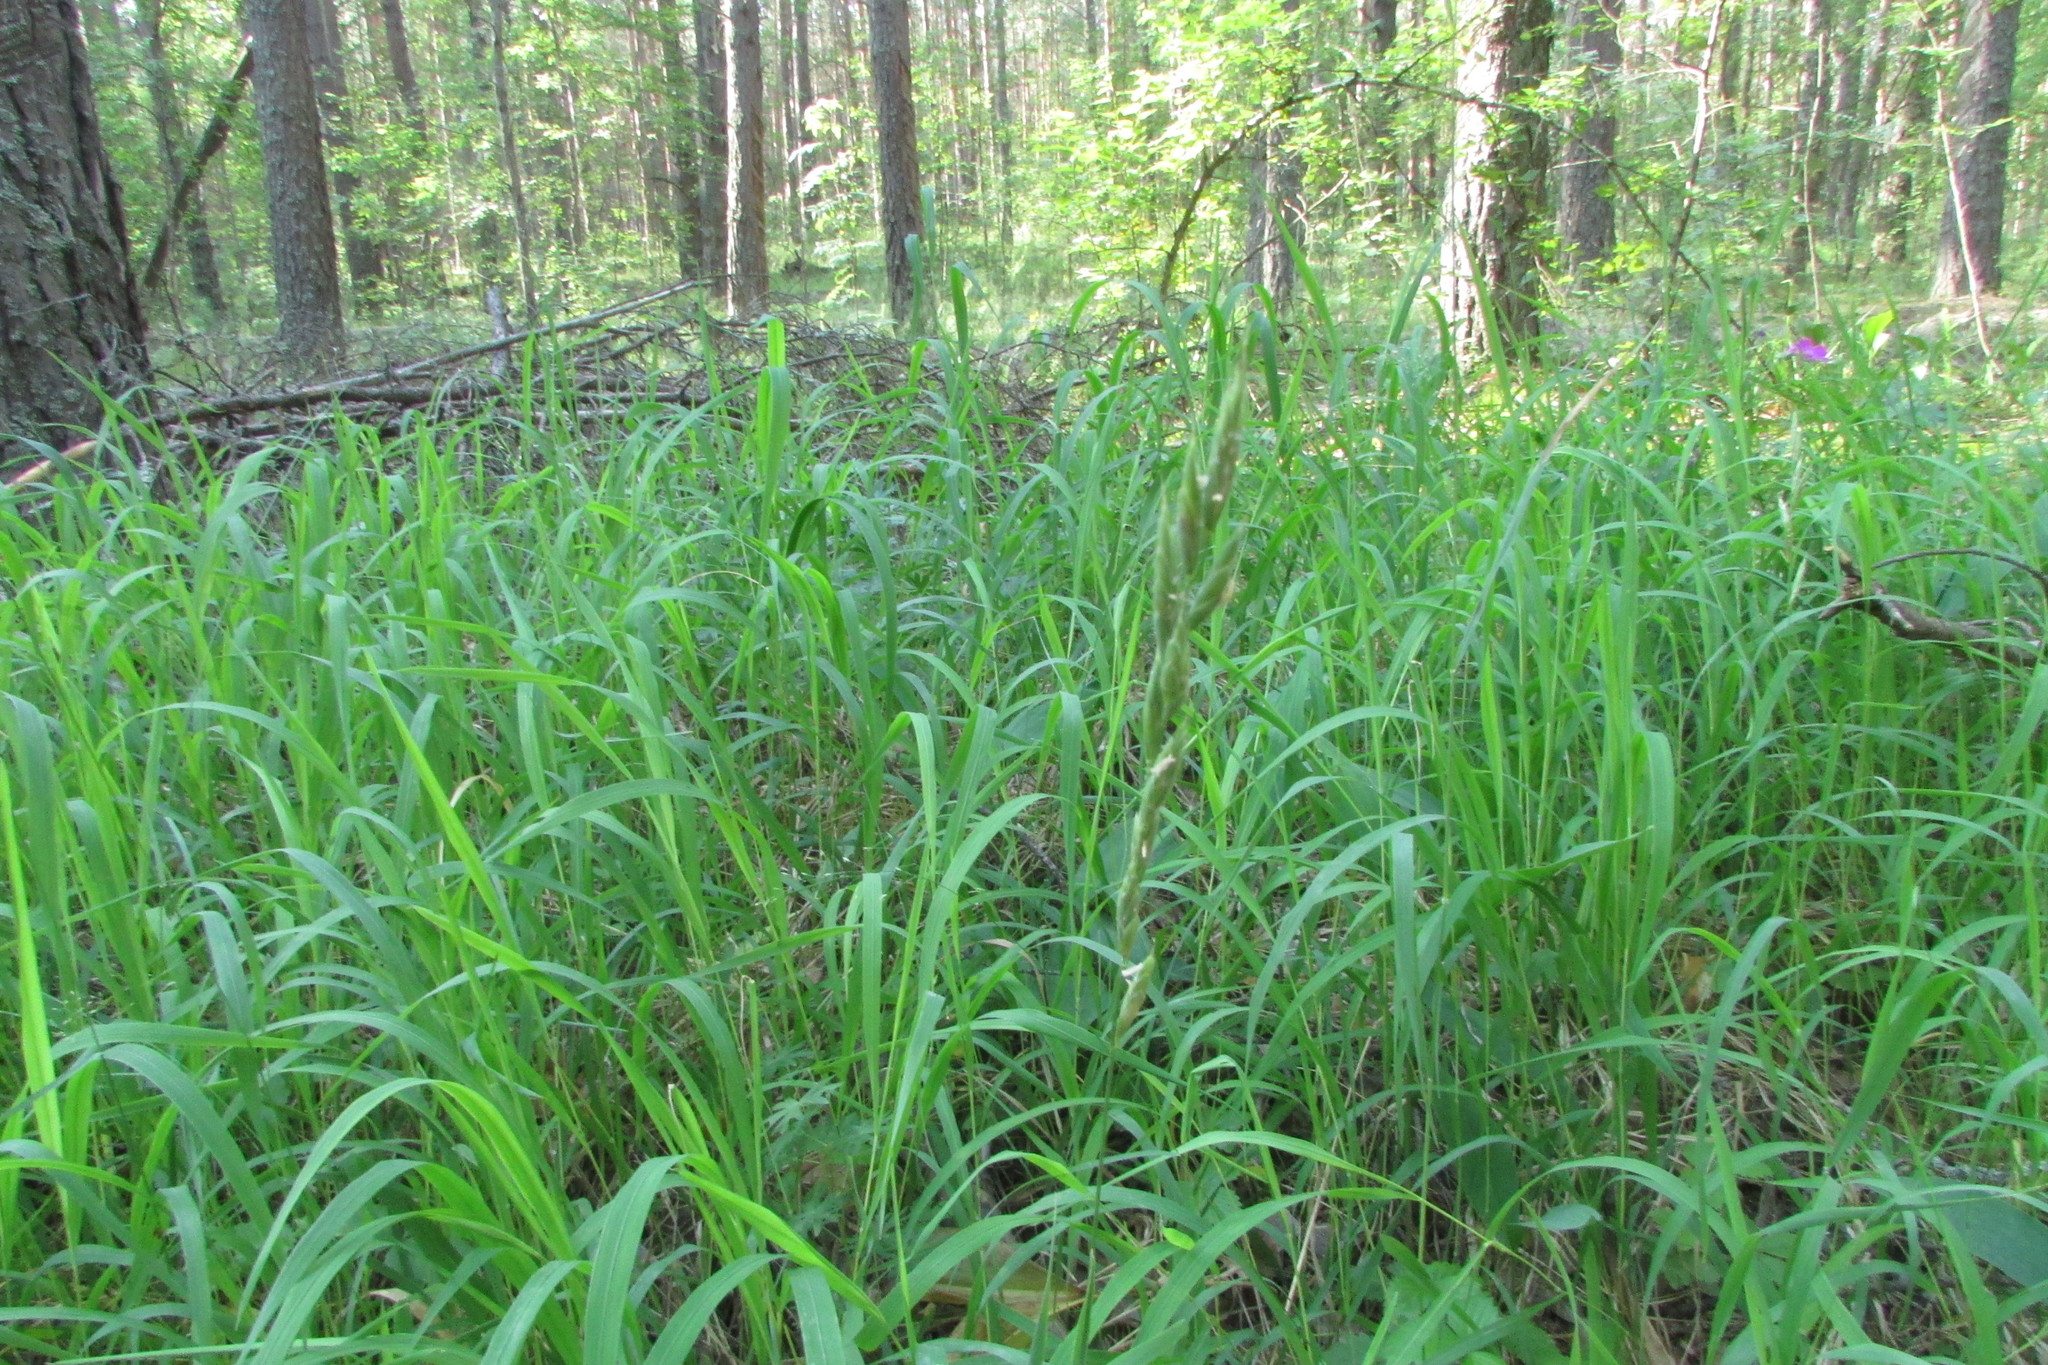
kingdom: Plantae
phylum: Tracheophyta
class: Liliopsida
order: Poales
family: Poaceae
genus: Brachypodium
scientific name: Brachypodium pinnatum
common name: Tor grass
